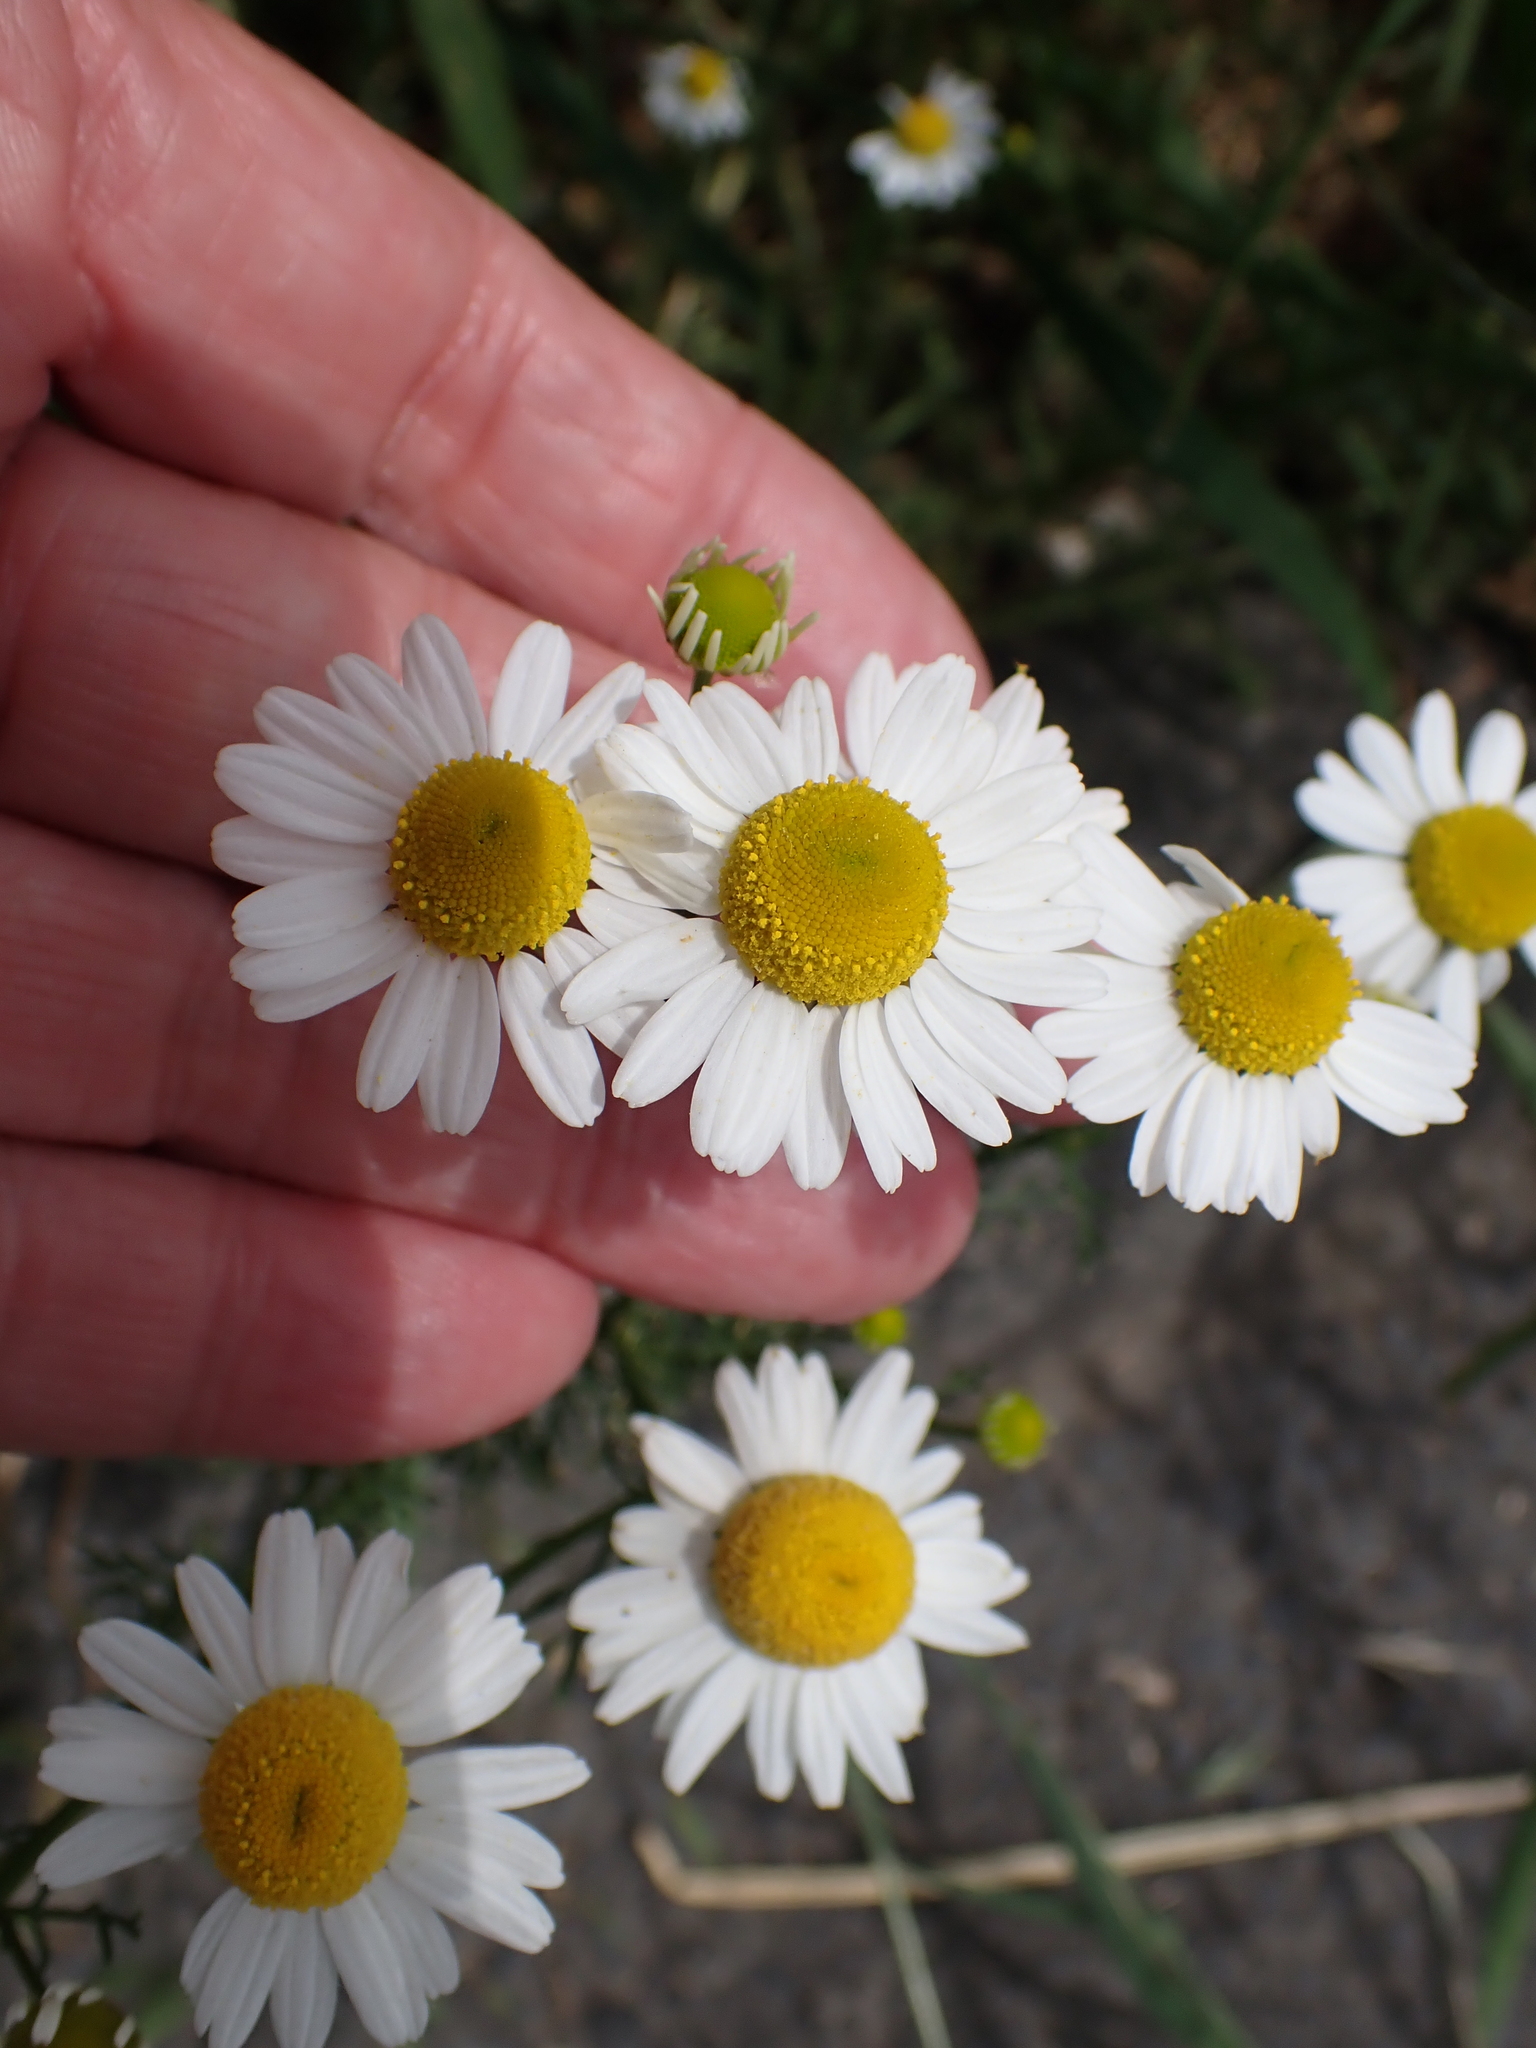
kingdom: Plantae
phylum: Tracheophyta
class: Magnoliopsida
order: Asterales
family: Asteraceae
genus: Matricaria
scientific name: Matricaria chamomilla
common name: Scented mayweed
